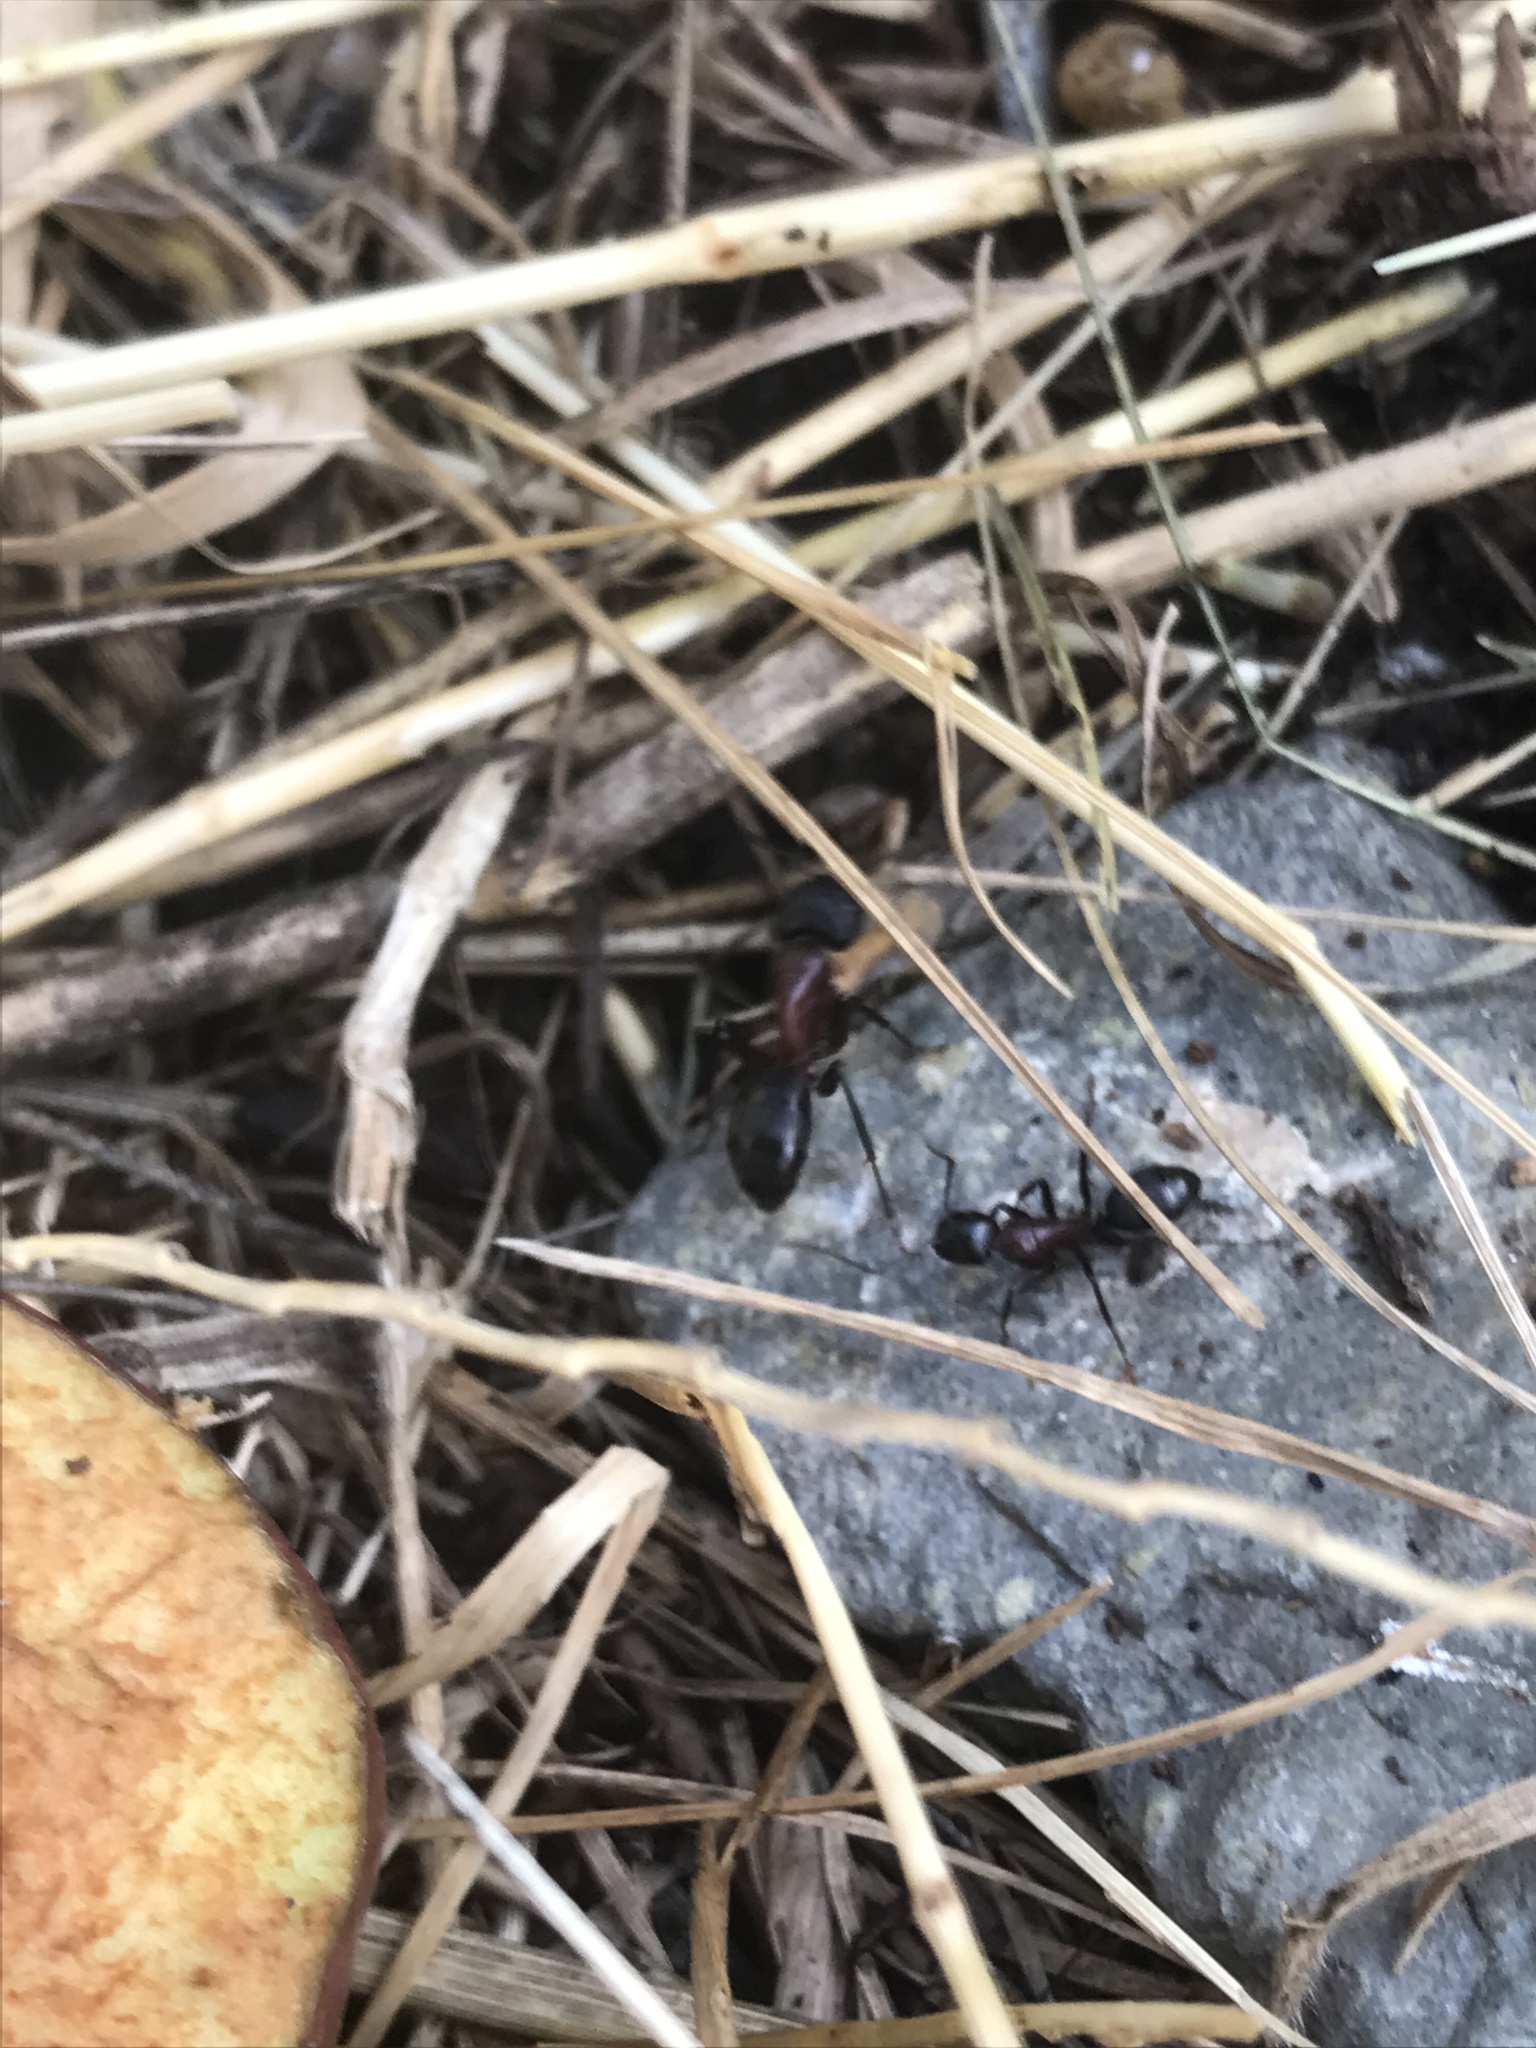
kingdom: Animalia
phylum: Arthropoda
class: Insecta
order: Hymenoptera
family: Formicidae
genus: Camponotus
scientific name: Camponotus vicinus
